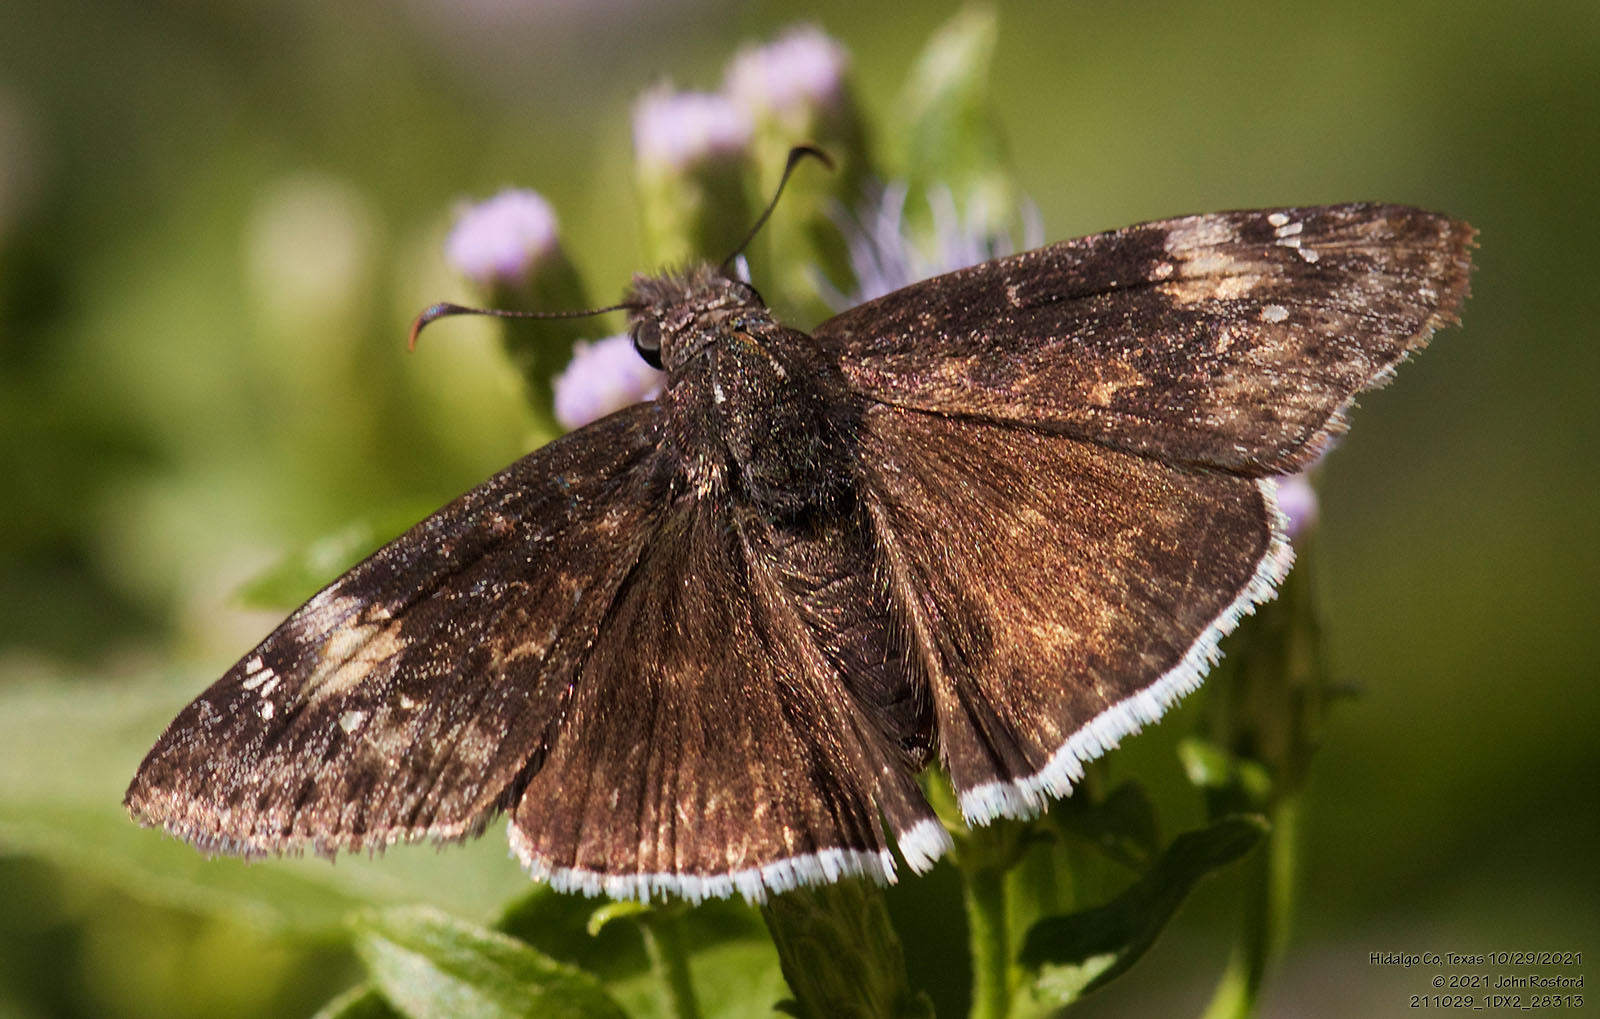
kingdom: Animalia
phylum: Arthropoda
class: Insecta
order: Lepidoptera
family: Hesperiidae
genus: Erynnis
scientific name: Erynnis funeralis
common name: Funereal duskywing
